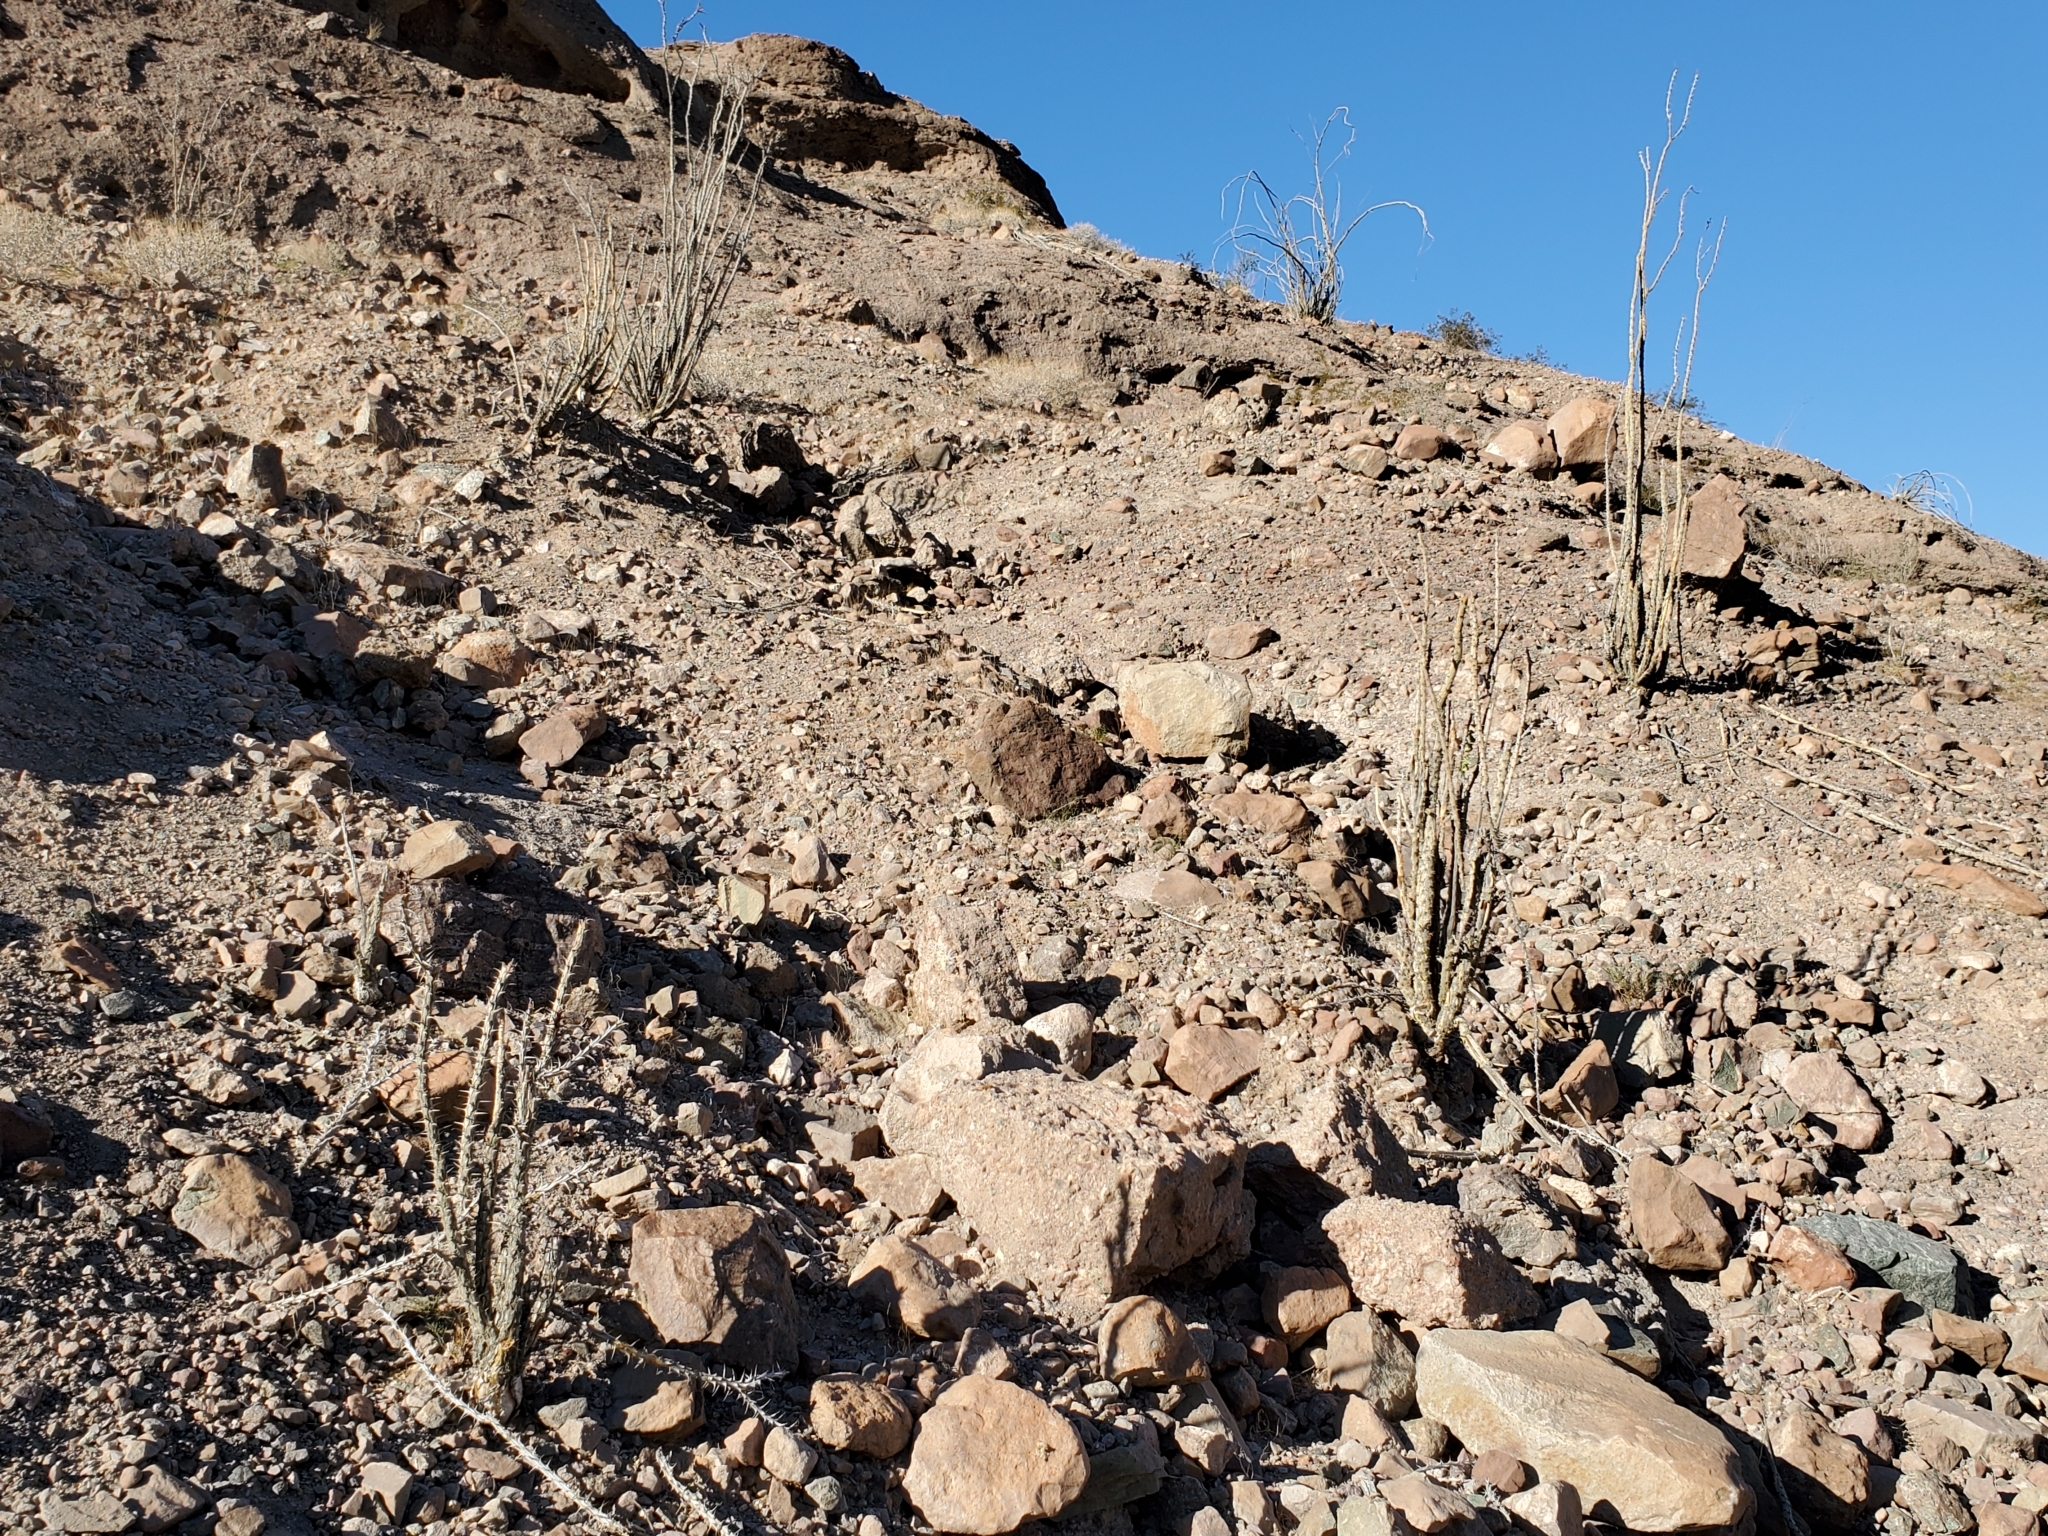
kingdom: Plantae
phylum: Tracheophyta
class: Magnoliopsida
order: Ericales
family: Fouquieriaceae
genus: Fouquieria
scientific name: Fouquieria splendens
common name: Vine-cactus
